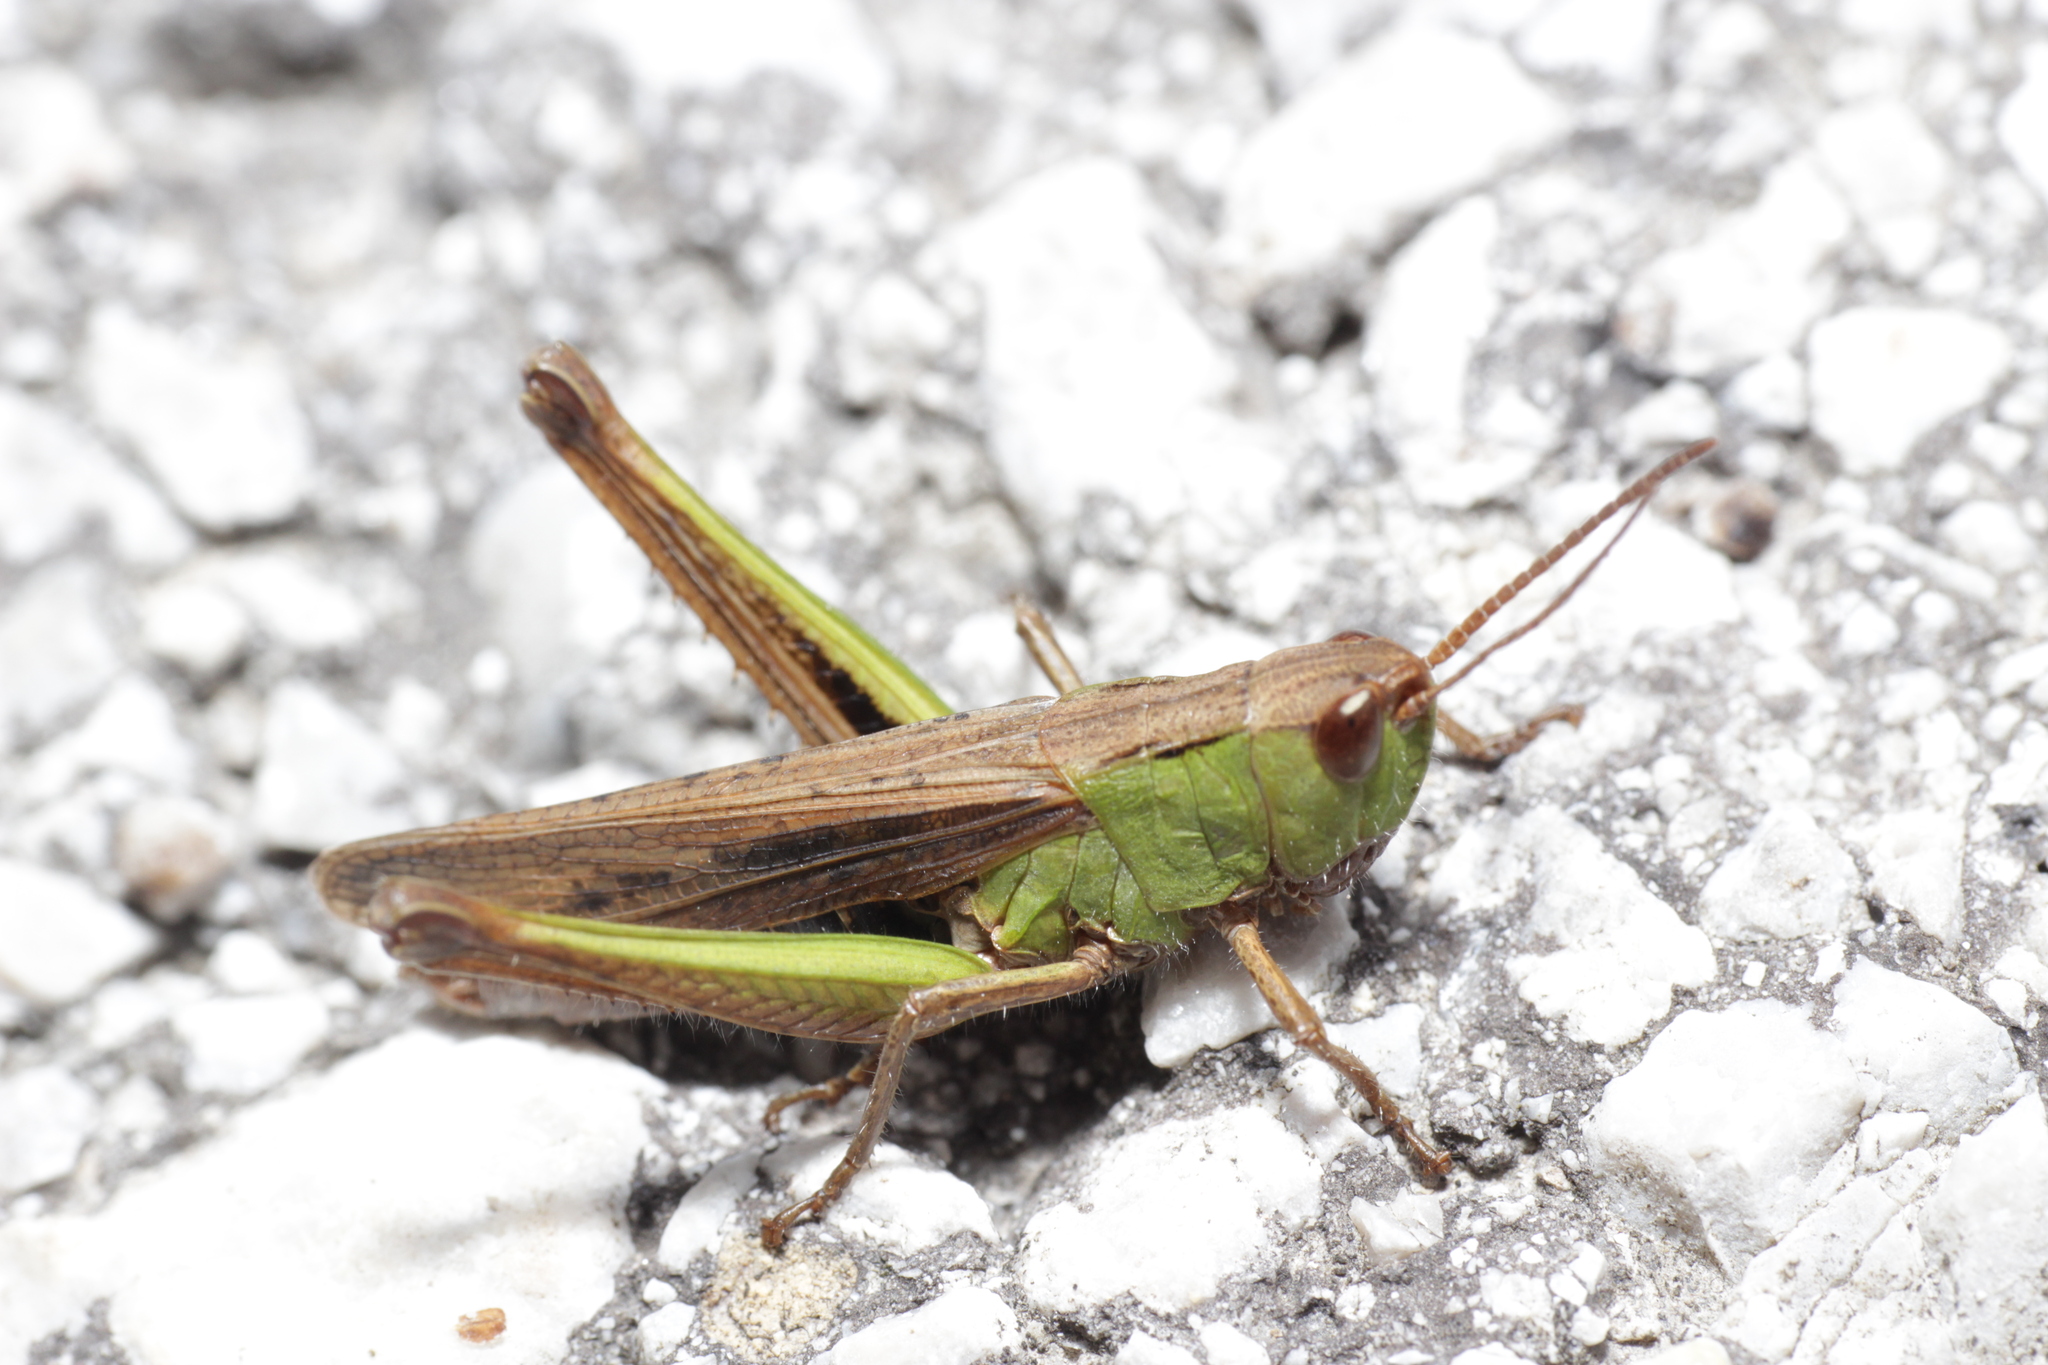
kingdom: Animalia
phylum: Arthropoda
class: Insecta
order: Orthoptera
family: Acrididae
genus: Chorthippus
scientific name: Chorthippus dorsatus
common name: Steppe grasshopper
